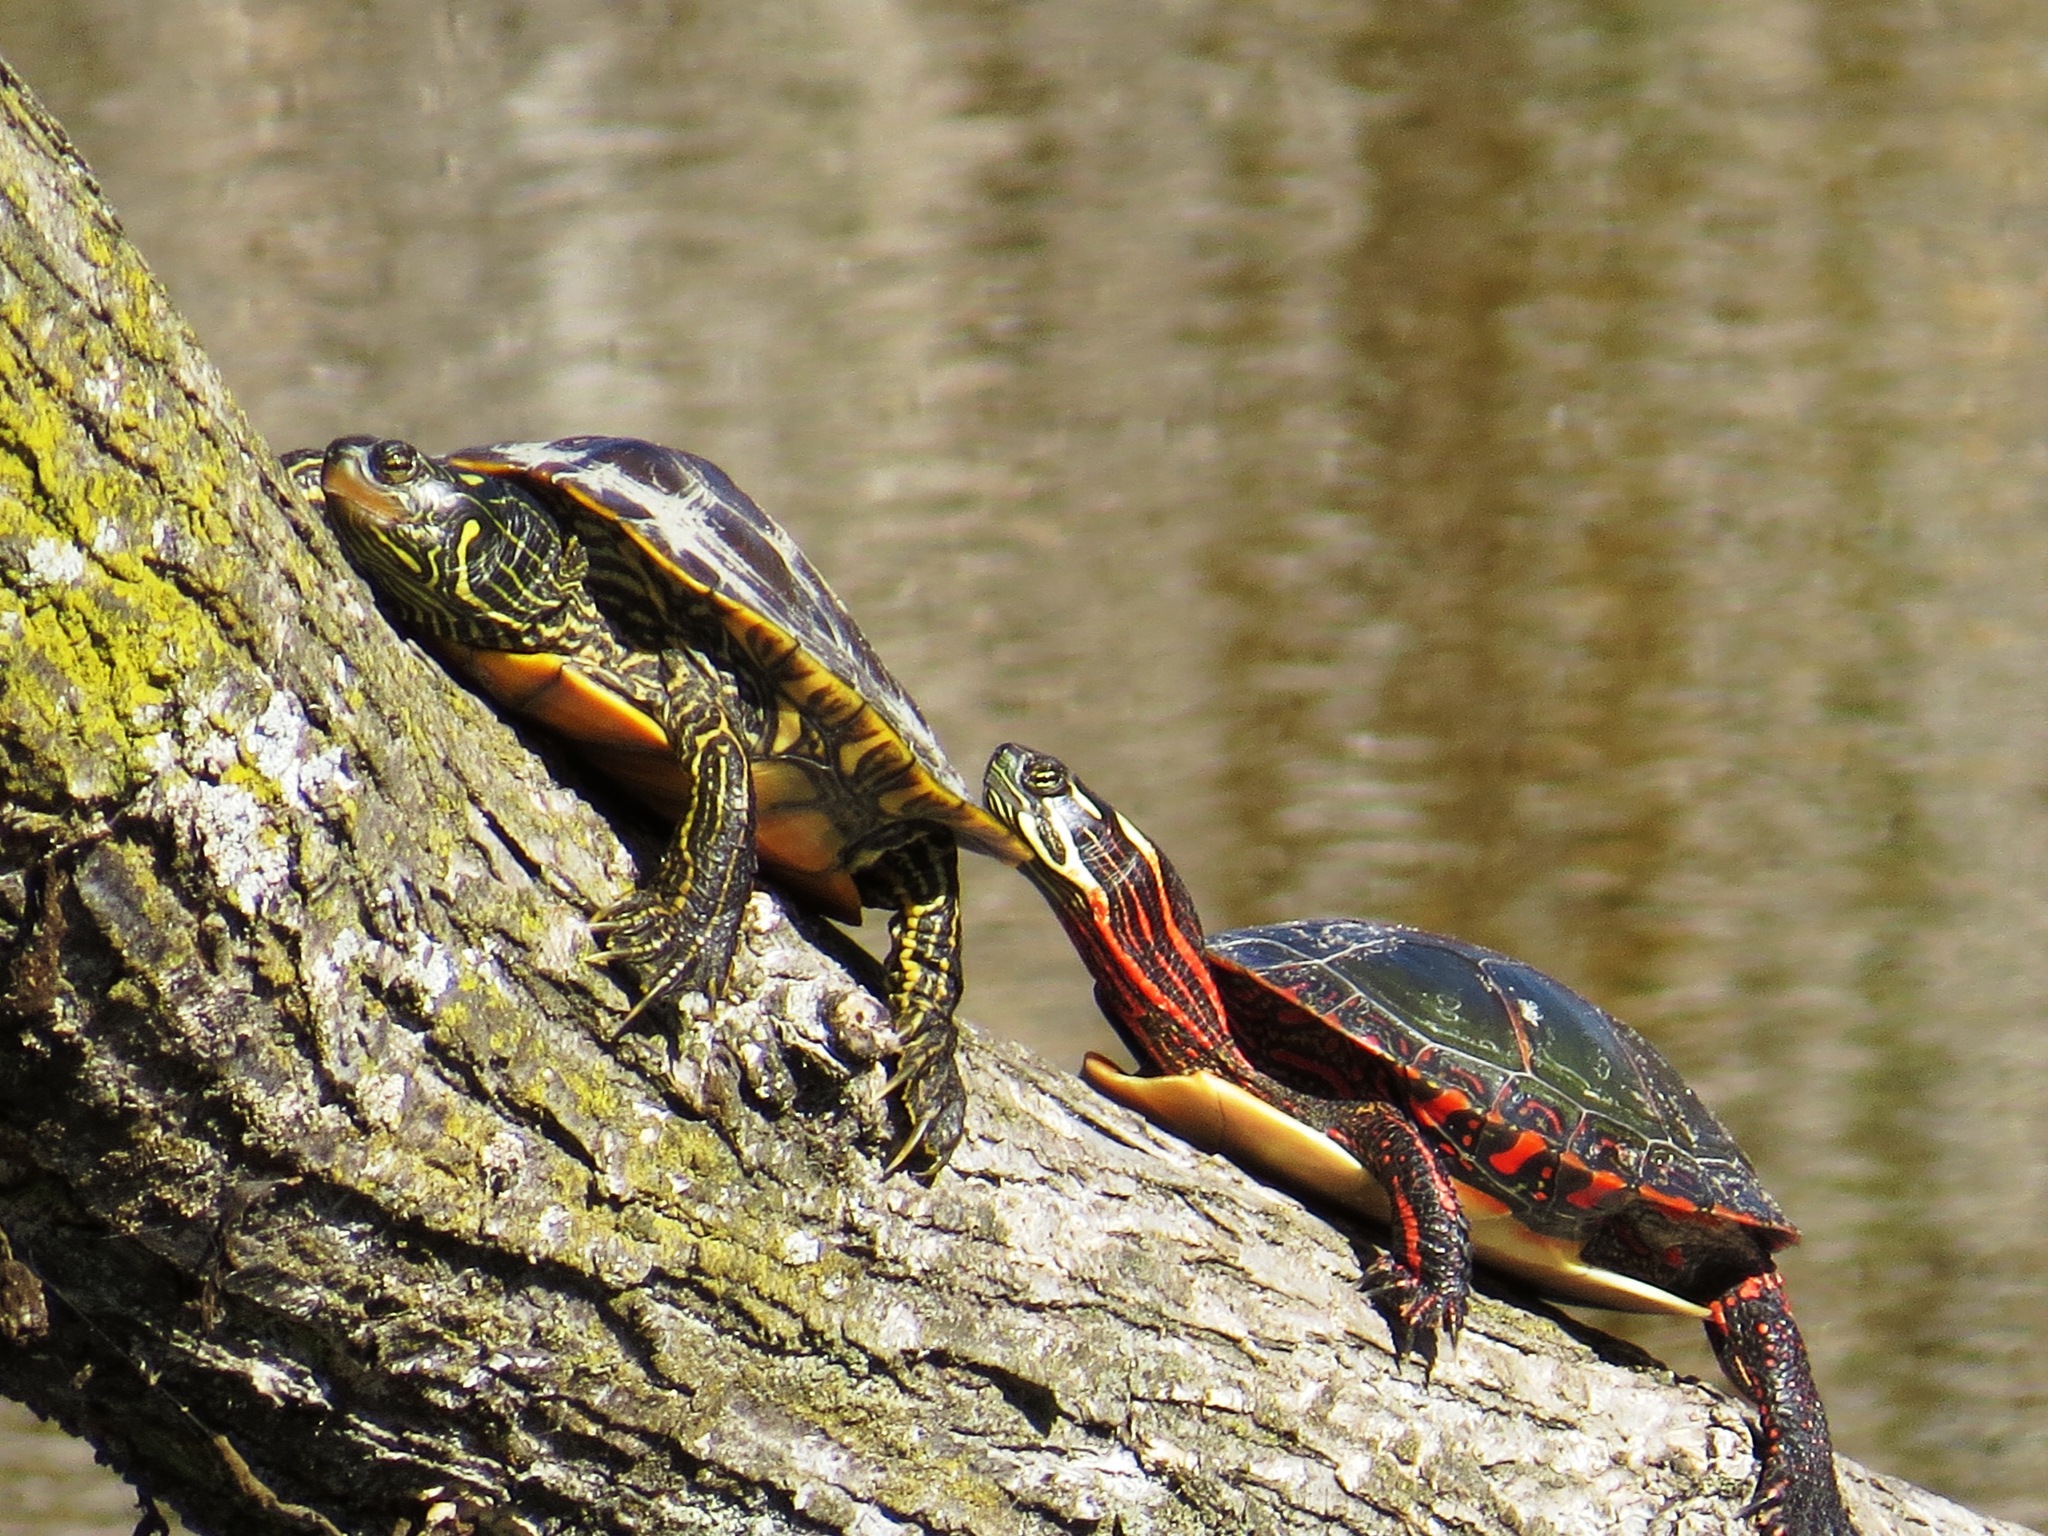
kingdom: Animalia
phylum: Chordata
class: Testudines
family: Emydidae
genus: Graptemys
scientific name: Graptemys geographica
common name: Common map turtle
